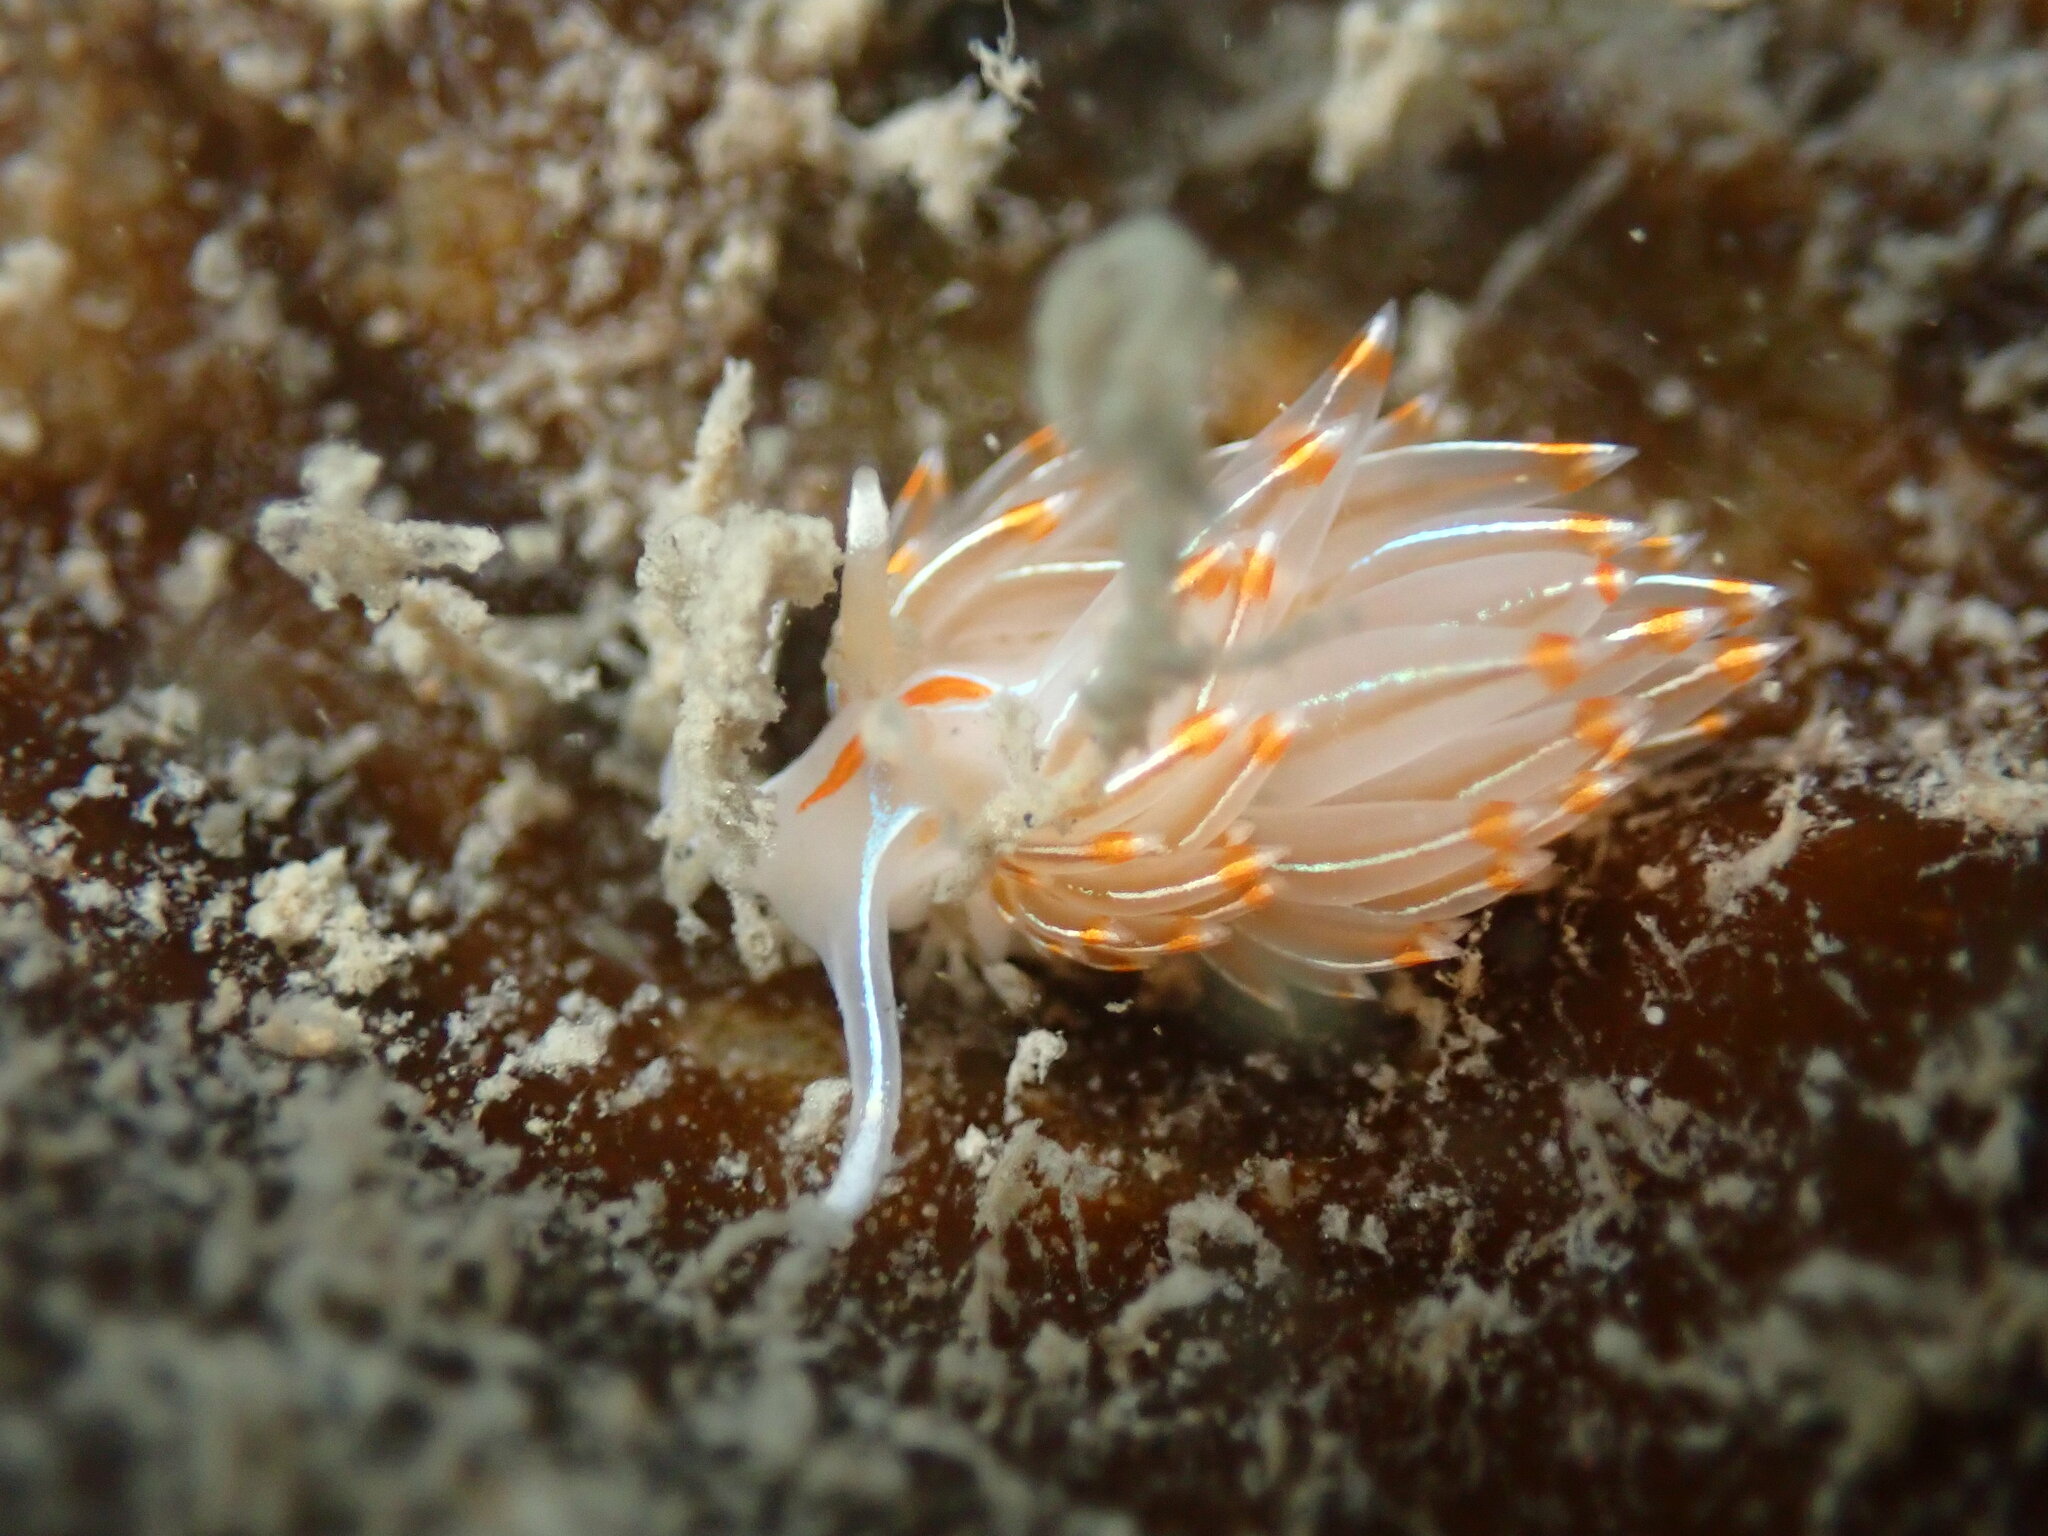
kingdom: Animalia
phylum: Mollusca
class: Gastropoda
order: Nudibranchia
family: Myrrhinidae
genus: Hermissenda
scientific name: Hermissenda crassicornis
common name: Hermissenda
